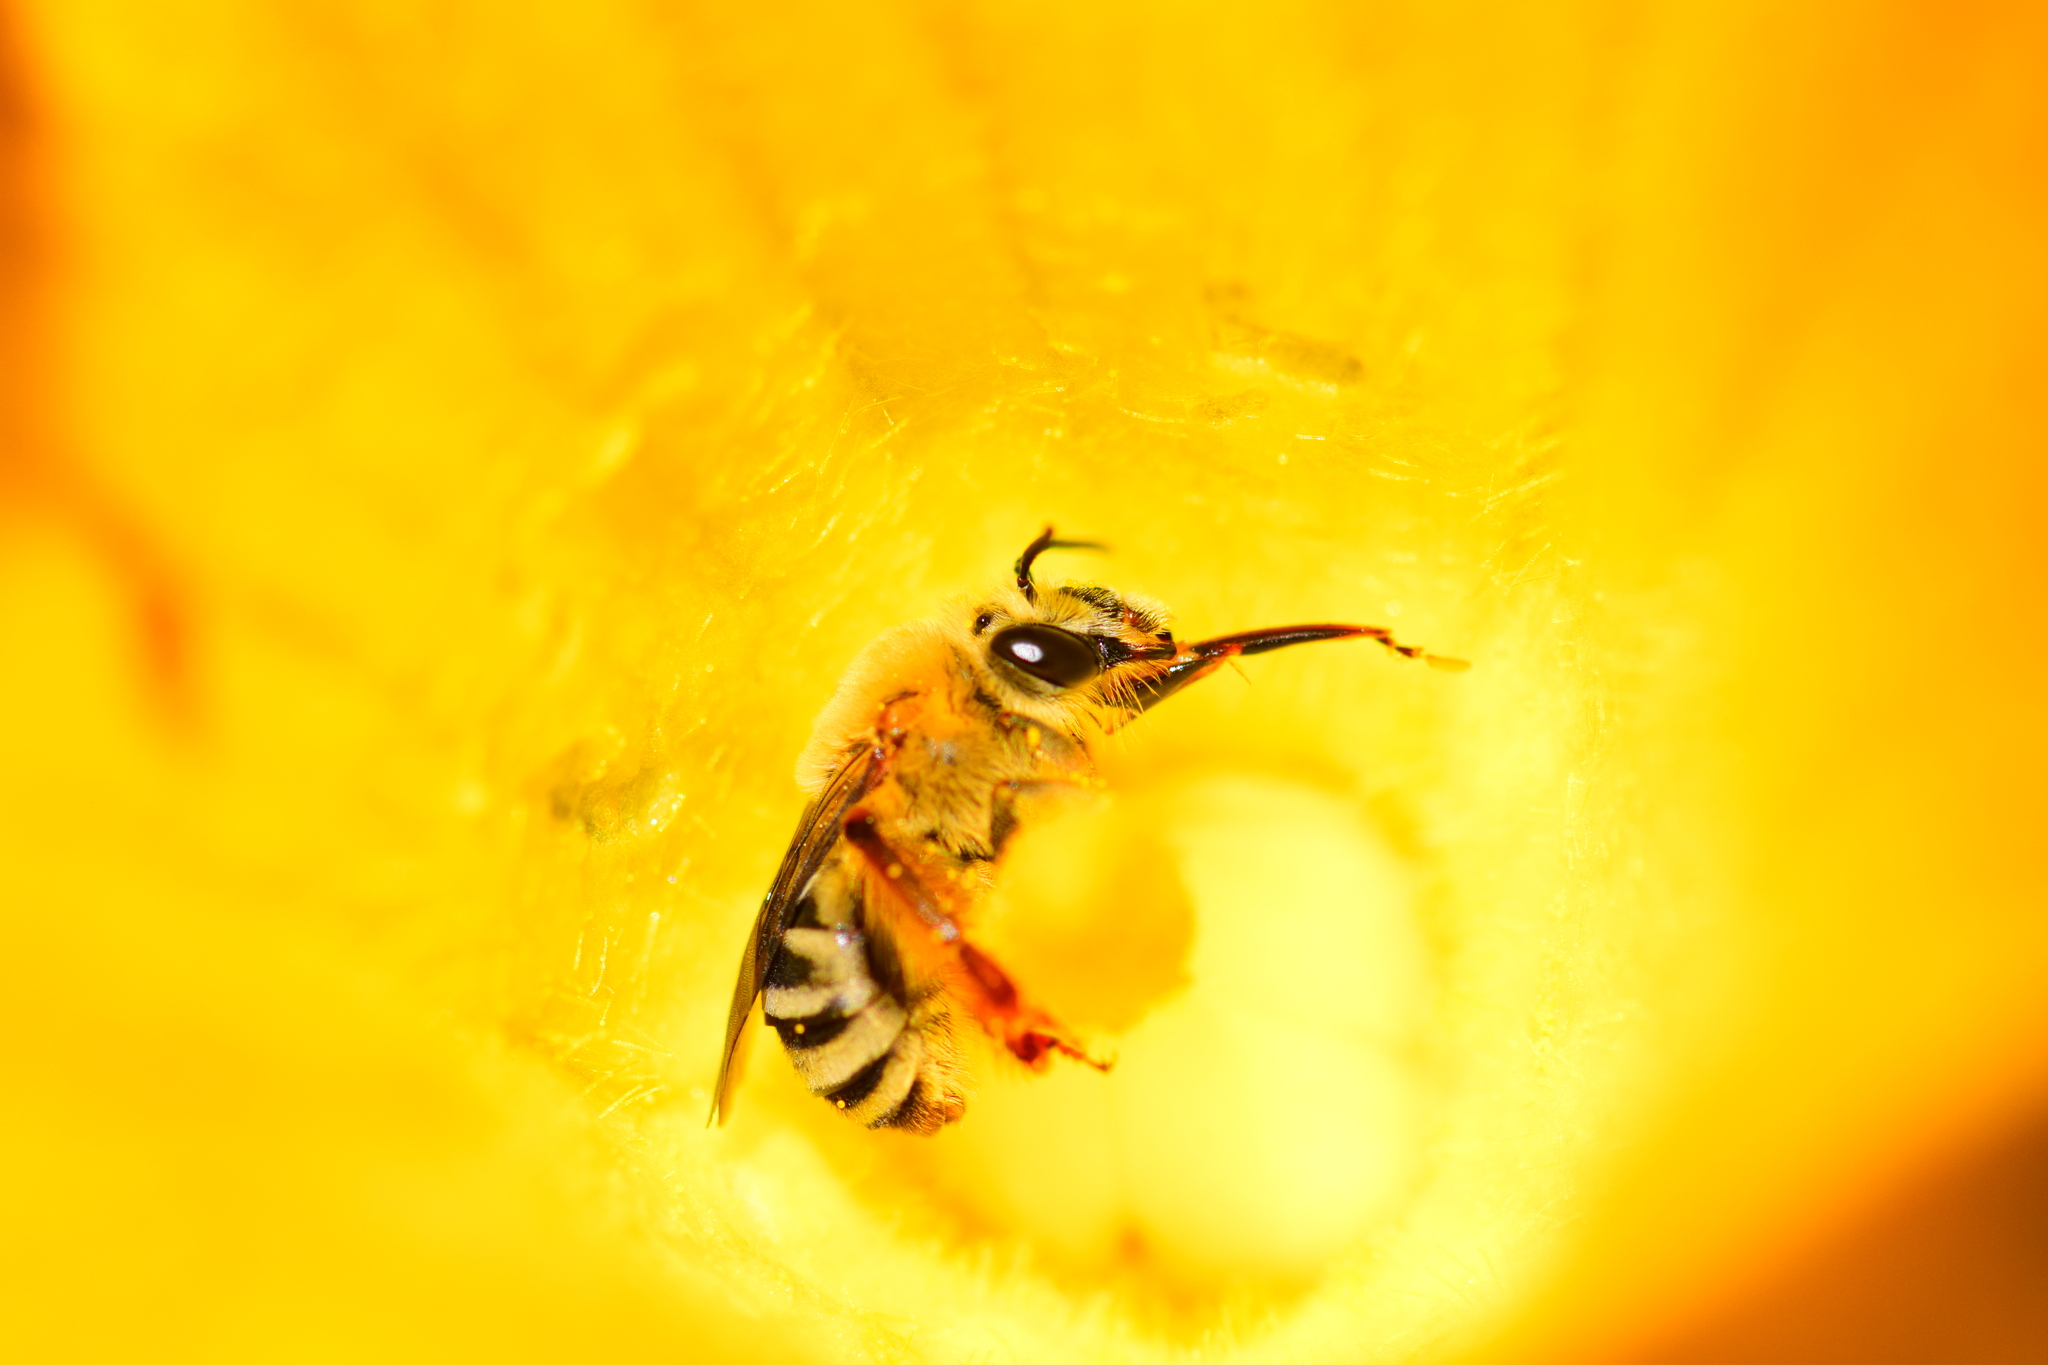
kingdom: Animalia
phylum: Arthropoda
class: Insecta
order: Hymenoptera
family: Apidae
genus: Peponapis
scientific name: Peponapis pruinosa
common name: Pruinose squash bee
